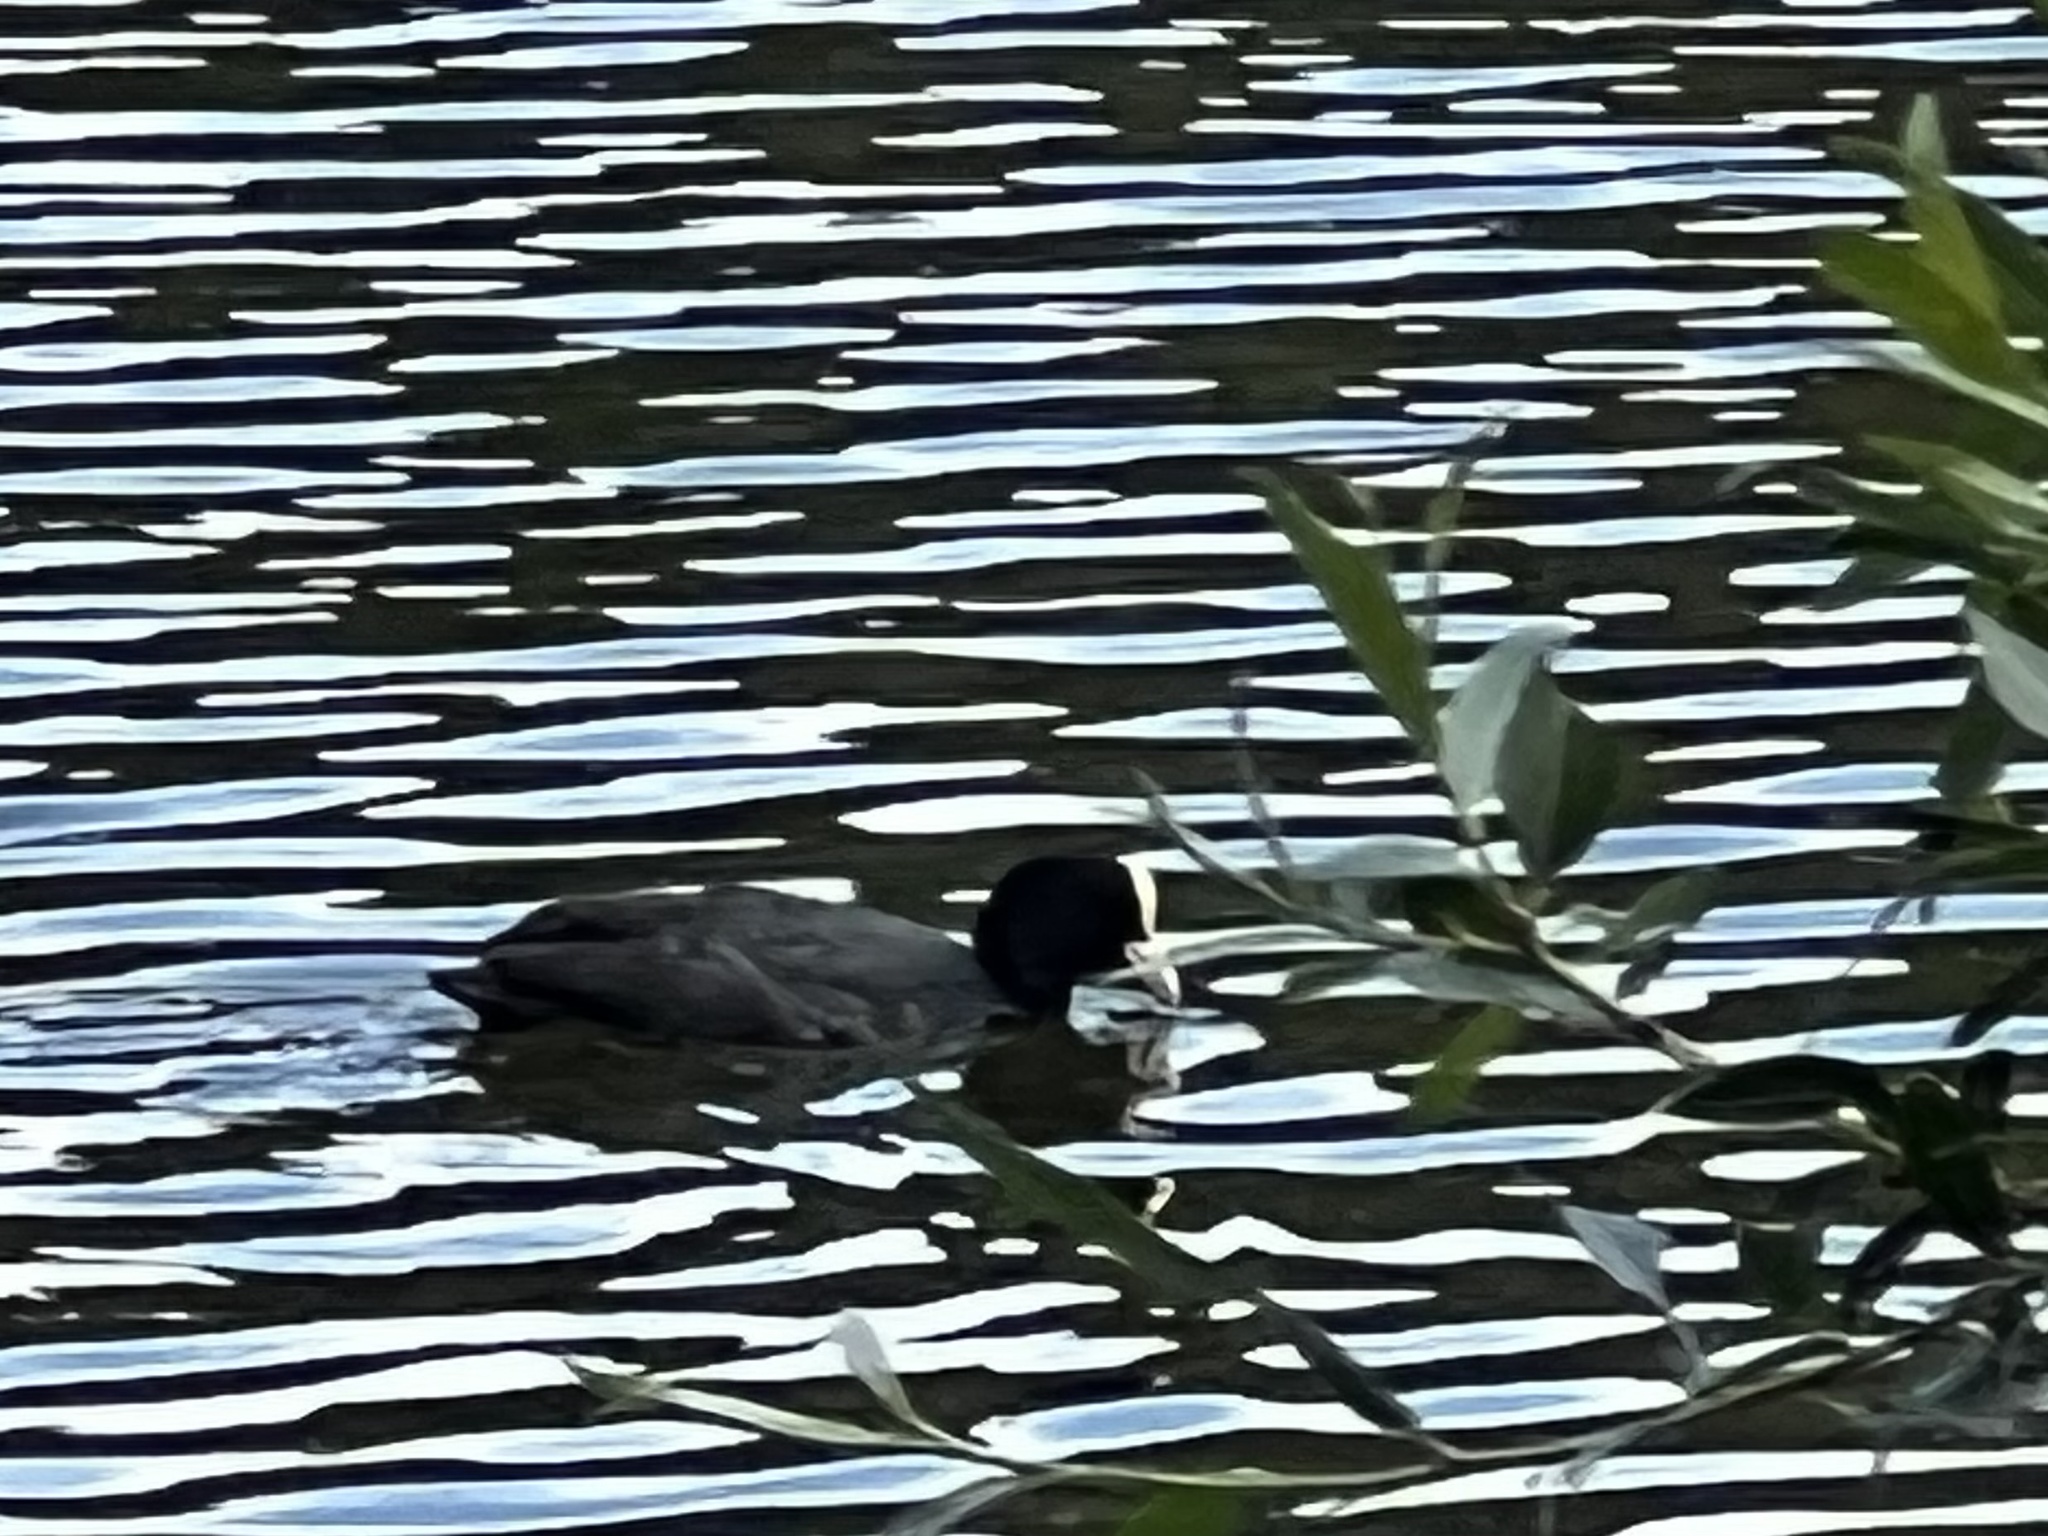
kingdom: Animalia
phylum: Chordata
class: Aves
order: Gruiformes
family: Rallidae
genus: Fulica
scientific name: Fulica atra
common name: Eurasian coot
